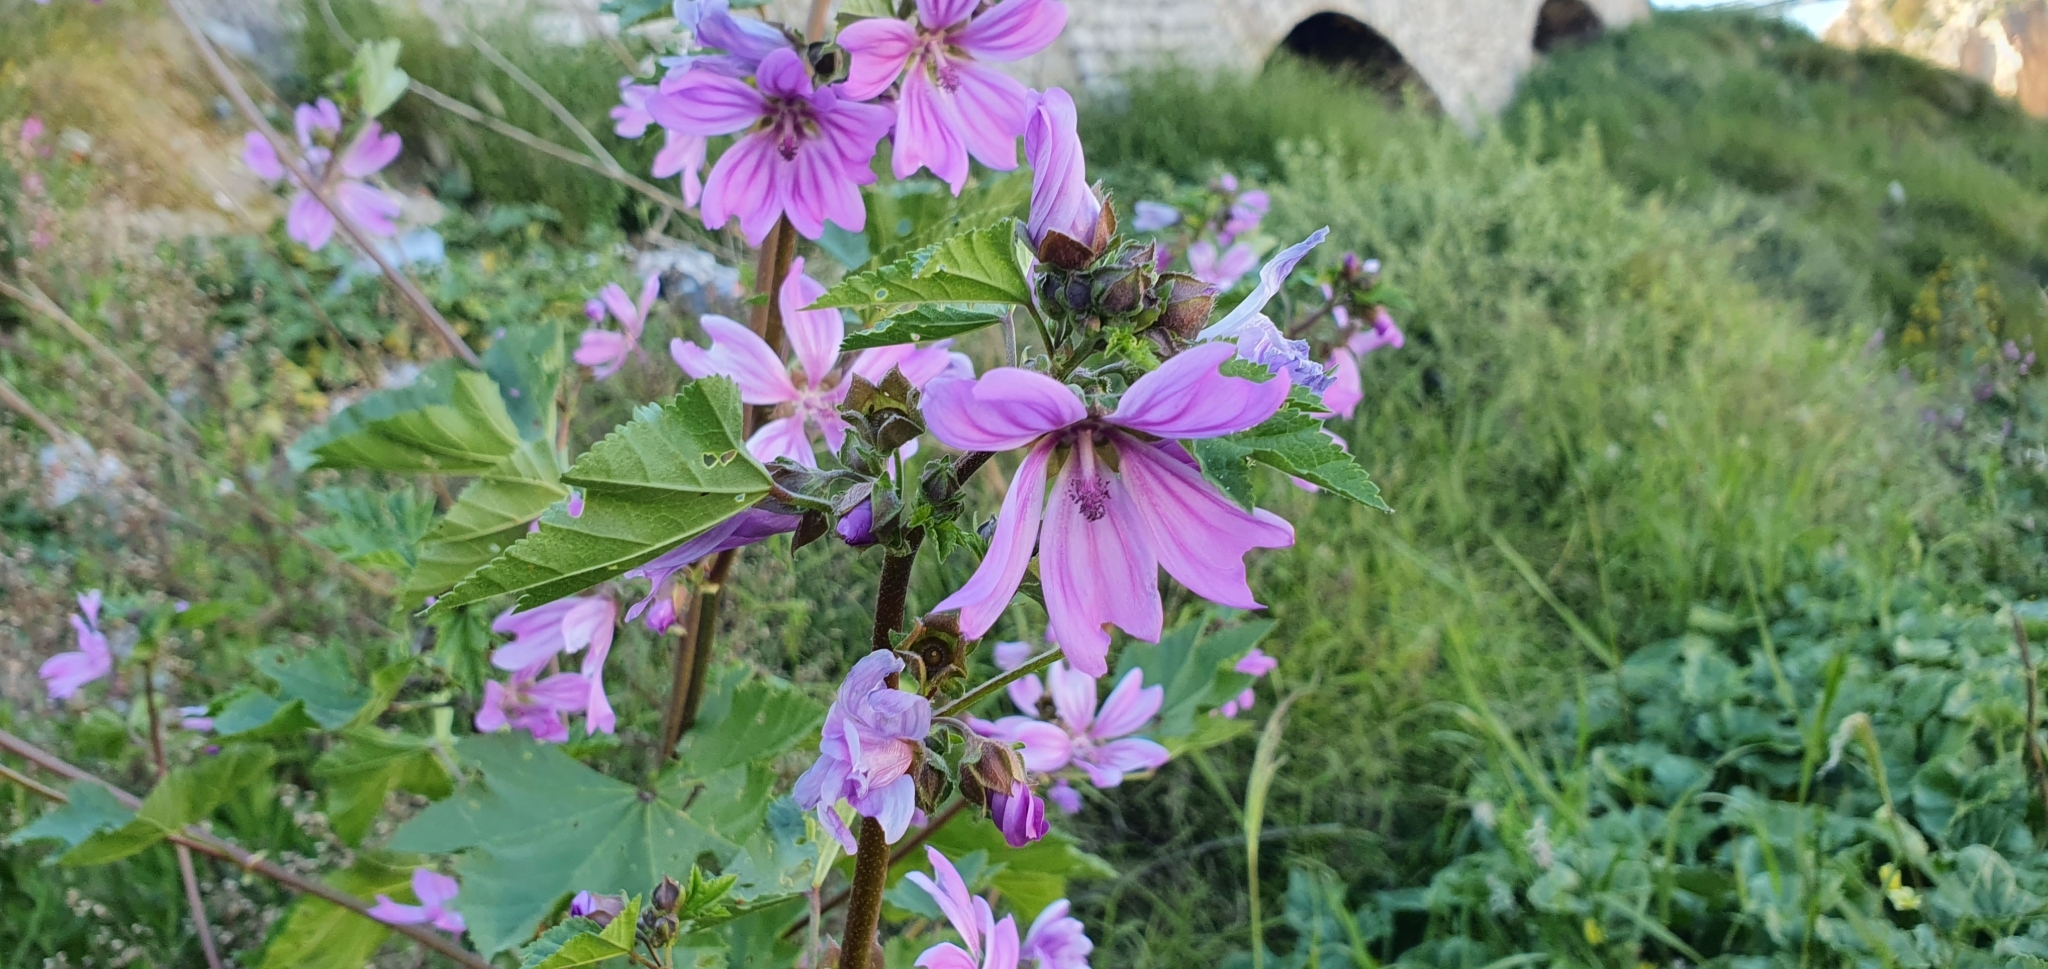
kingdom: Plantae
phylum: Tracheophyta
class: Magnoliopsida
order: Malvales
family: Malvaceae
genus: Malva
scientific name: Malva sylvestris
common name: Common mallow
